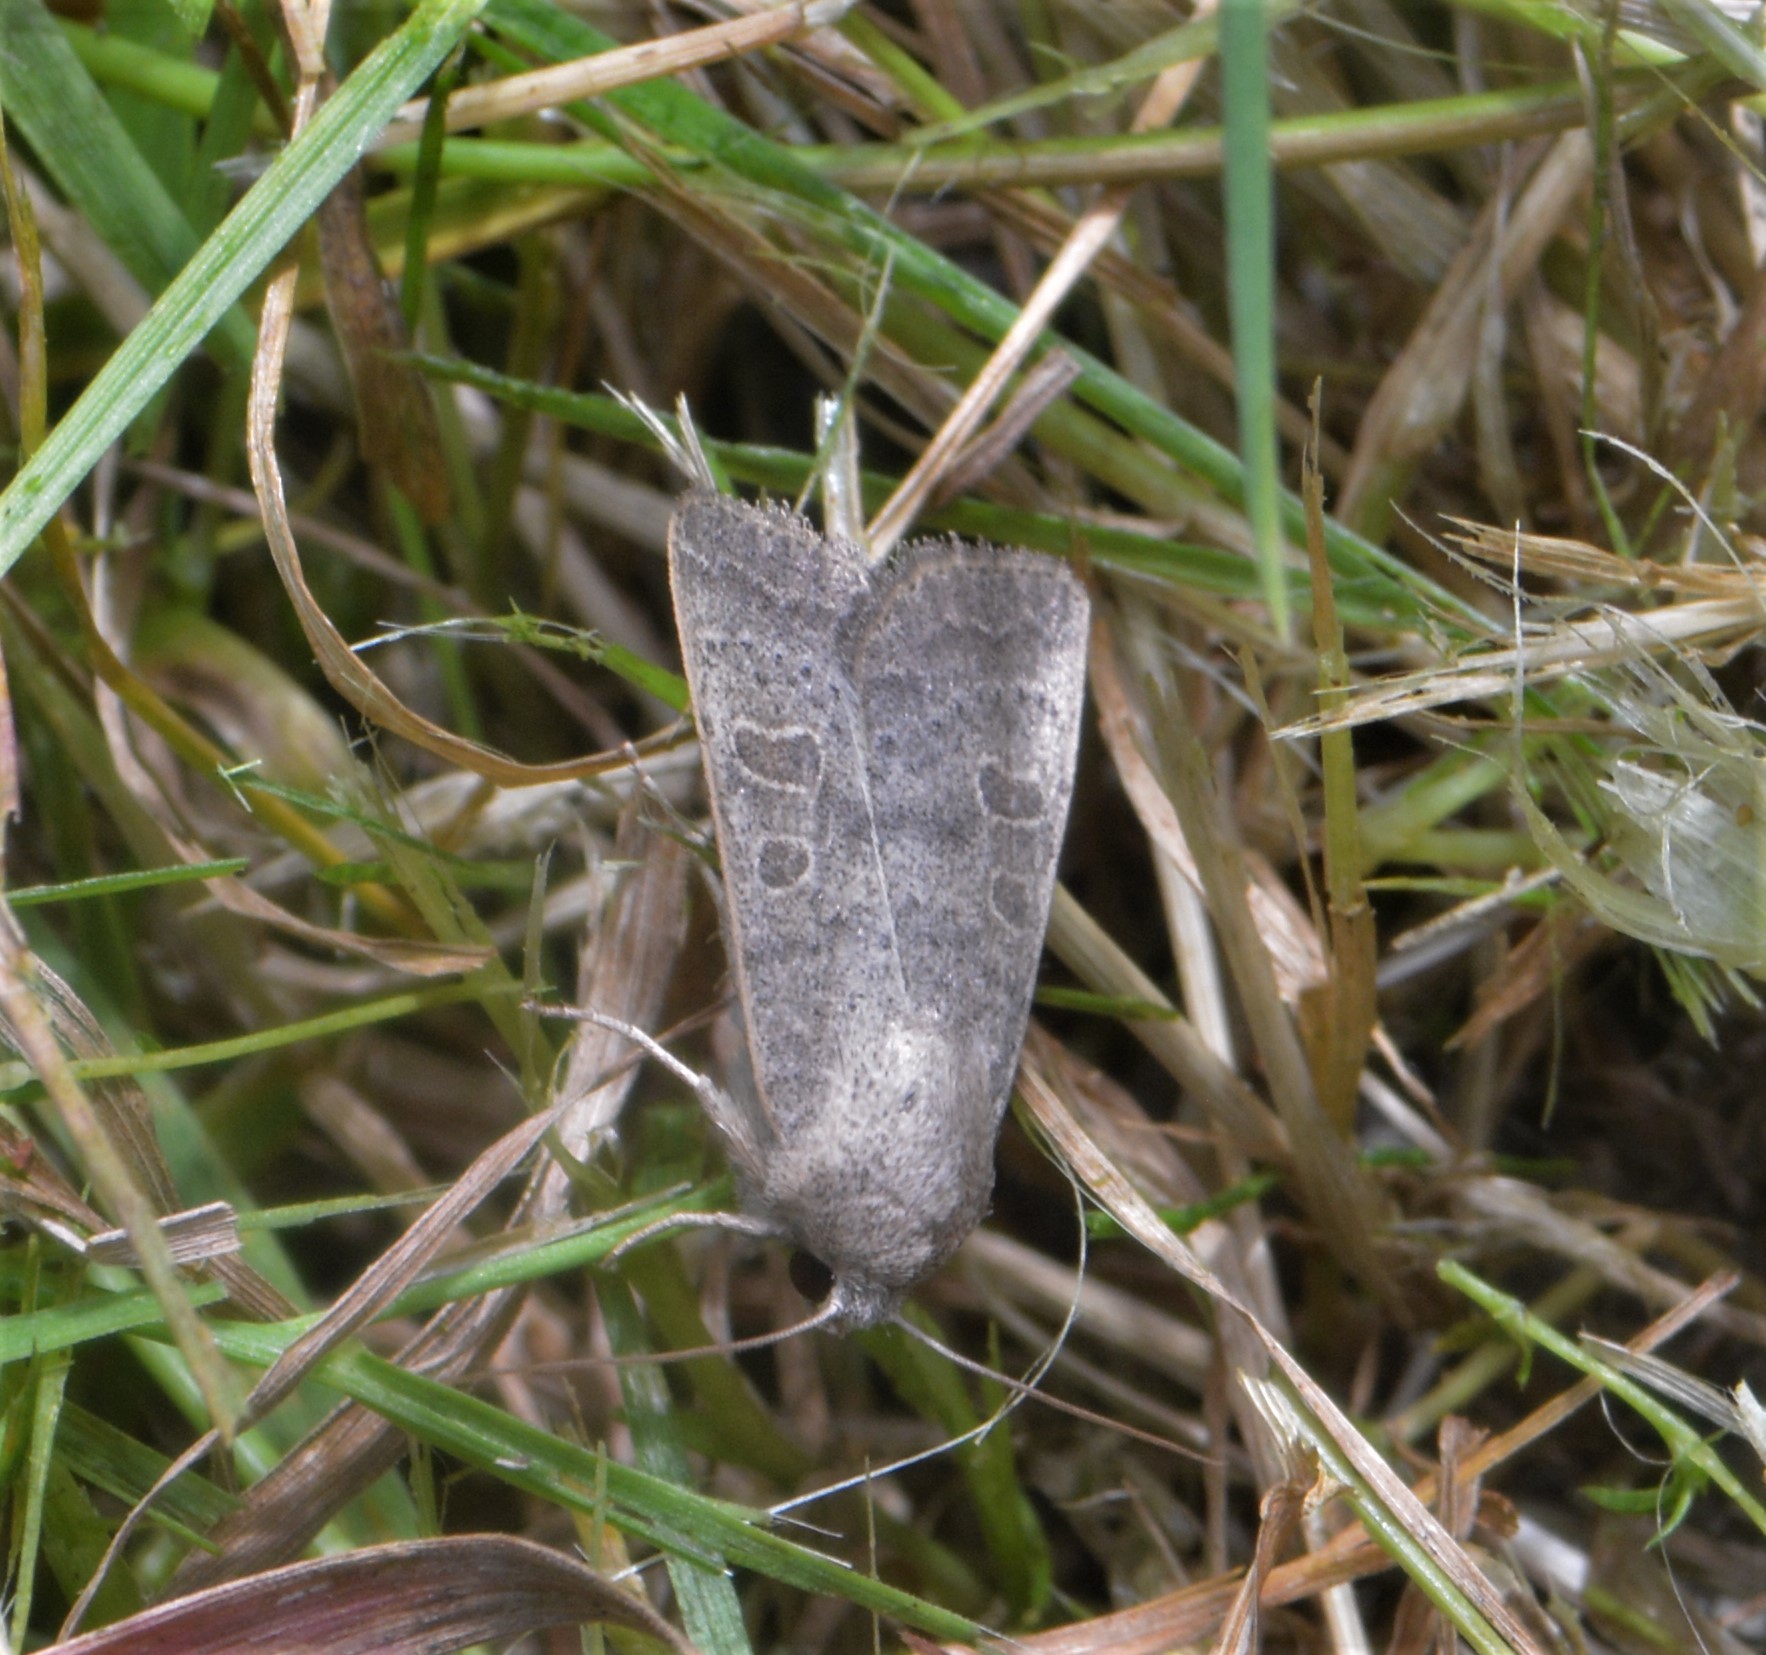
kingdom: Animalia
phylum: Arthropoda
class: Insecta
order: Lepidoptera
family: Noctuidae
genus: Hoplodrina
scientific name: Hoplodrina ambigua
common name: Vine's rustic
